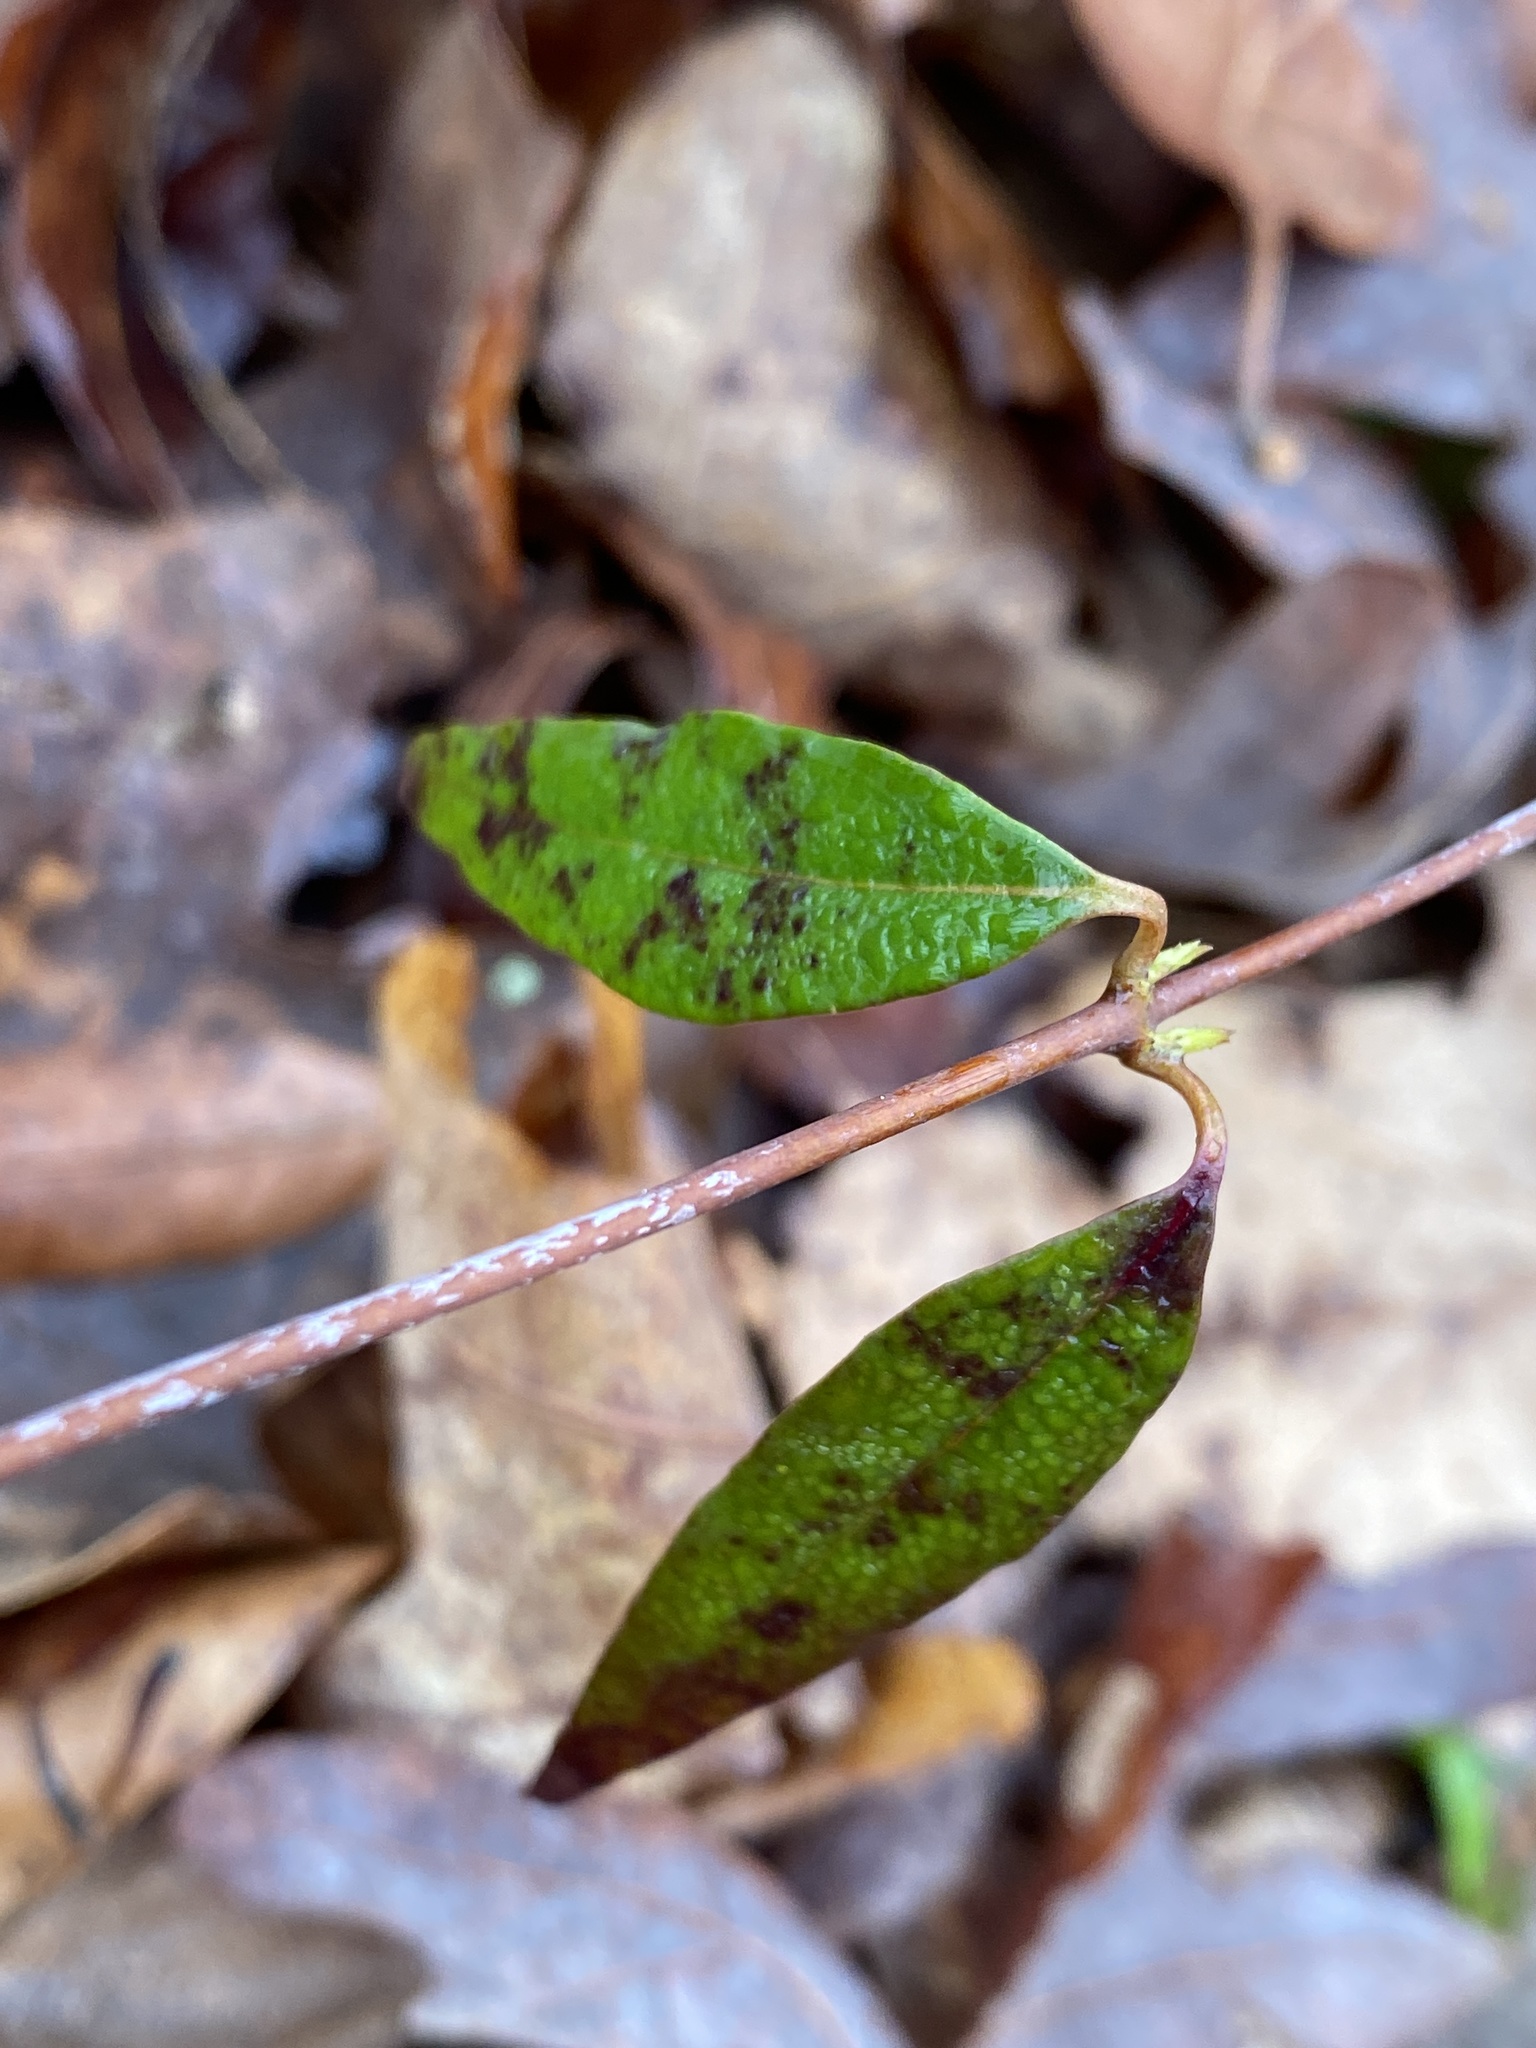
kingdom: Plantae
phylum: Tracheophyta
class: Magnoliopsida
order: Gentianales
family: Gelsemiaceae
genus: Gelsemium
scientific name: Gelsemium sempervirens
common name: Carolina-jasmine
